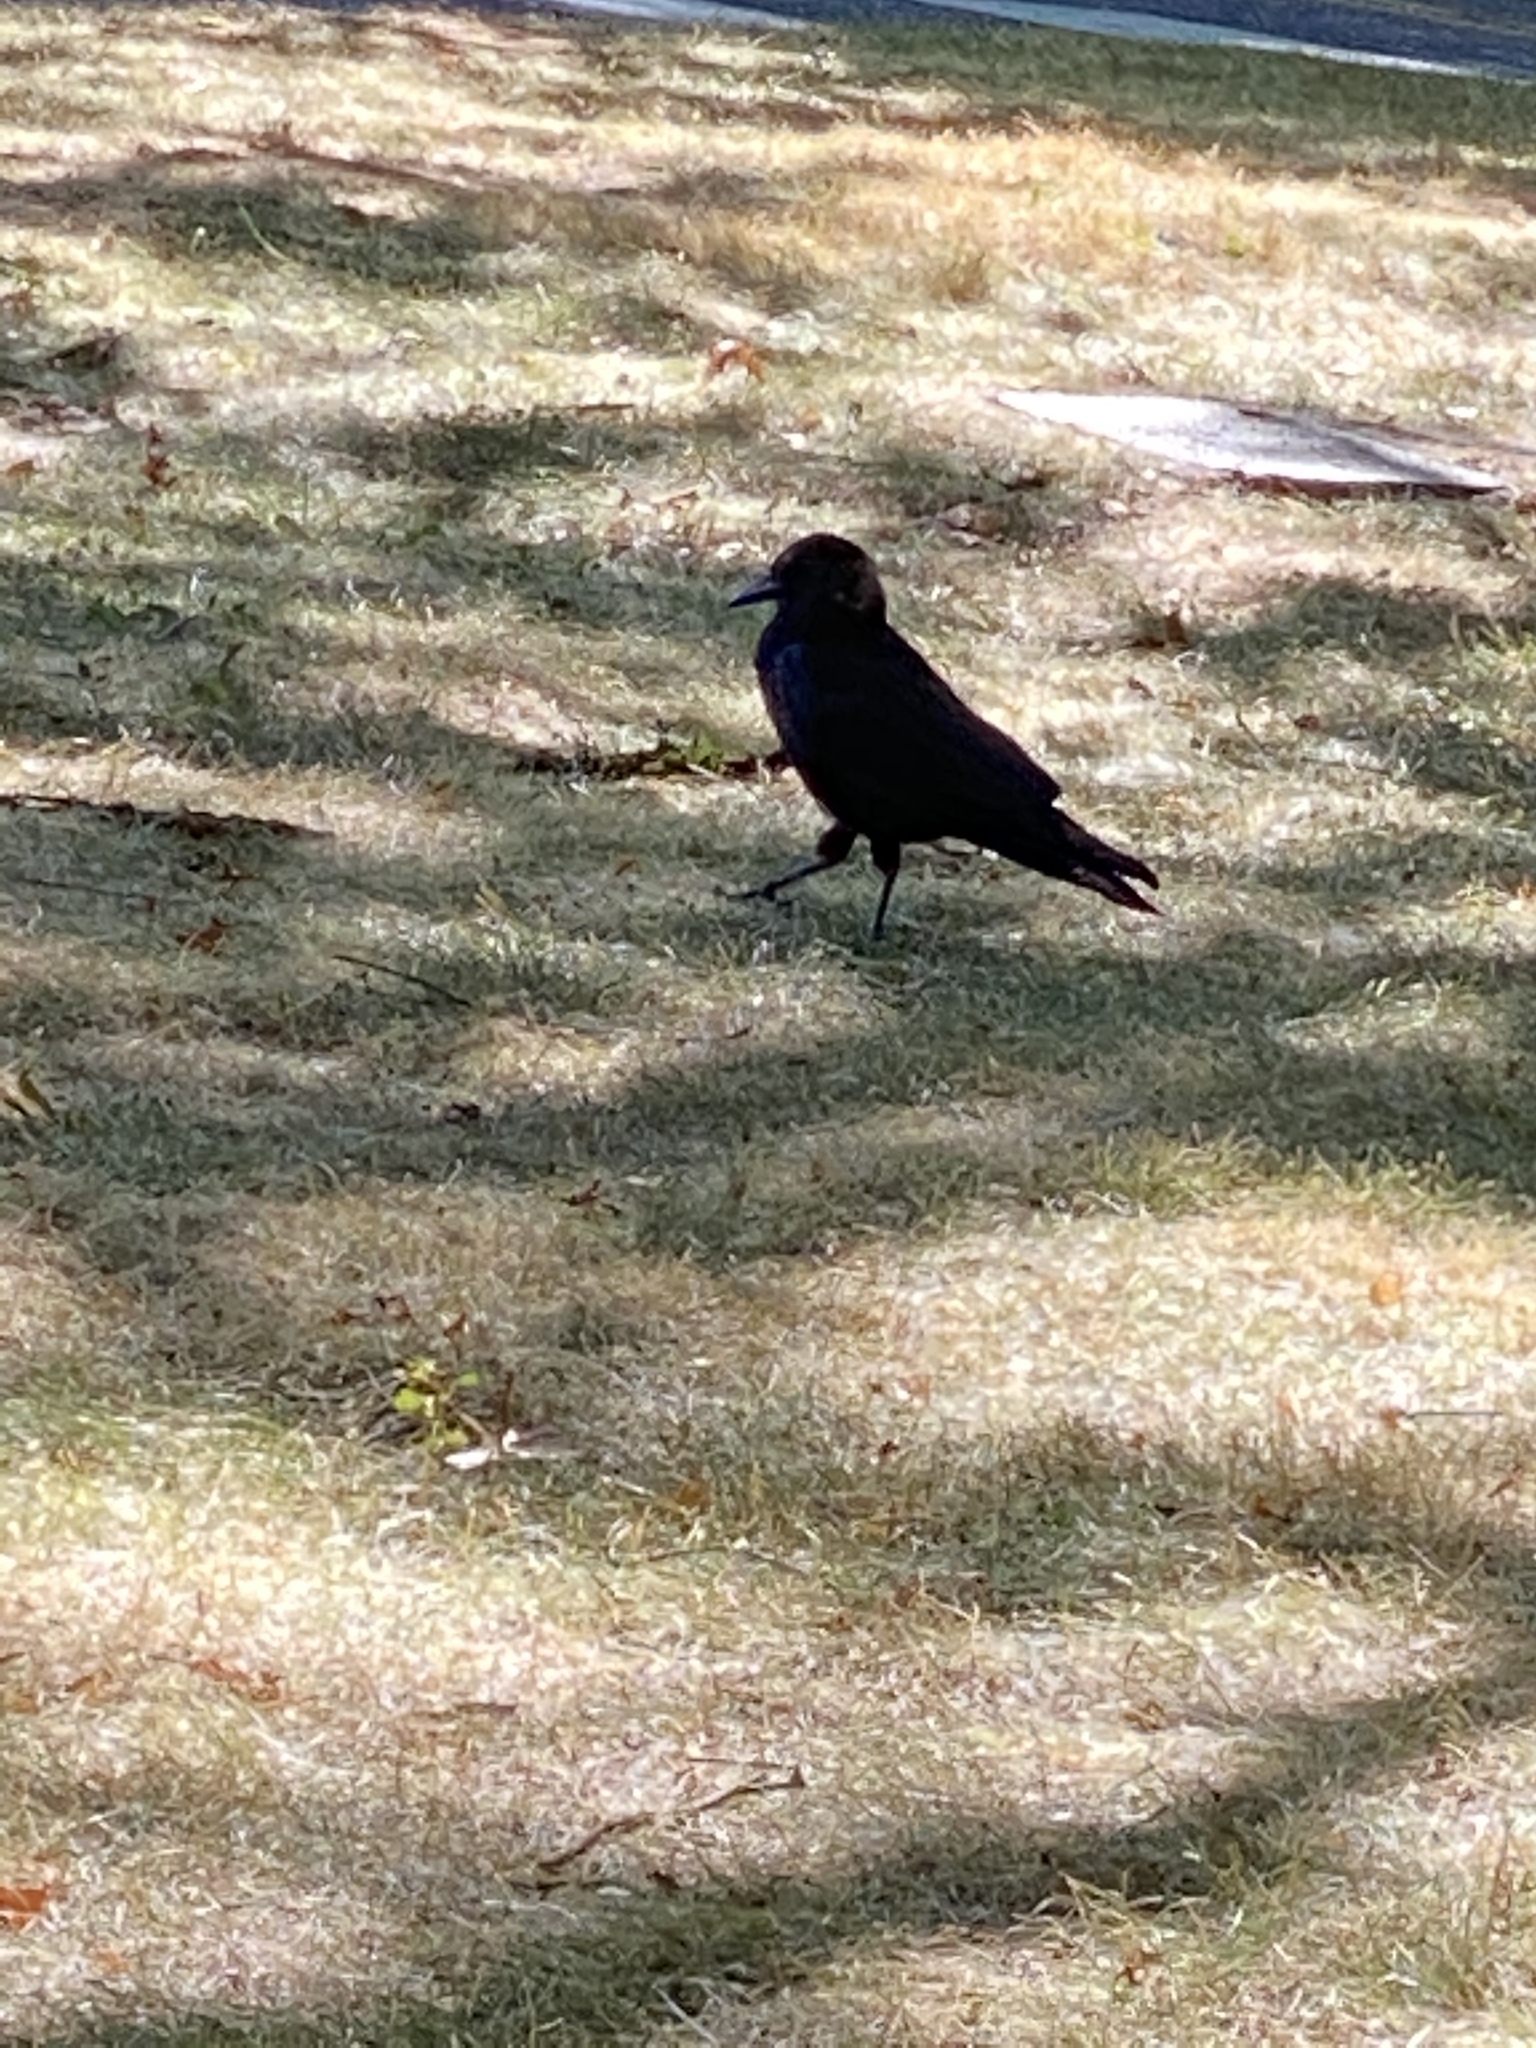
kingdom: Animalia
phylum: Chordata
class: Aves
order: Passeriformes
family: Corvidae
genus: Corvus
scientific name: Corvus brachyrhynchos
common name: American crow
